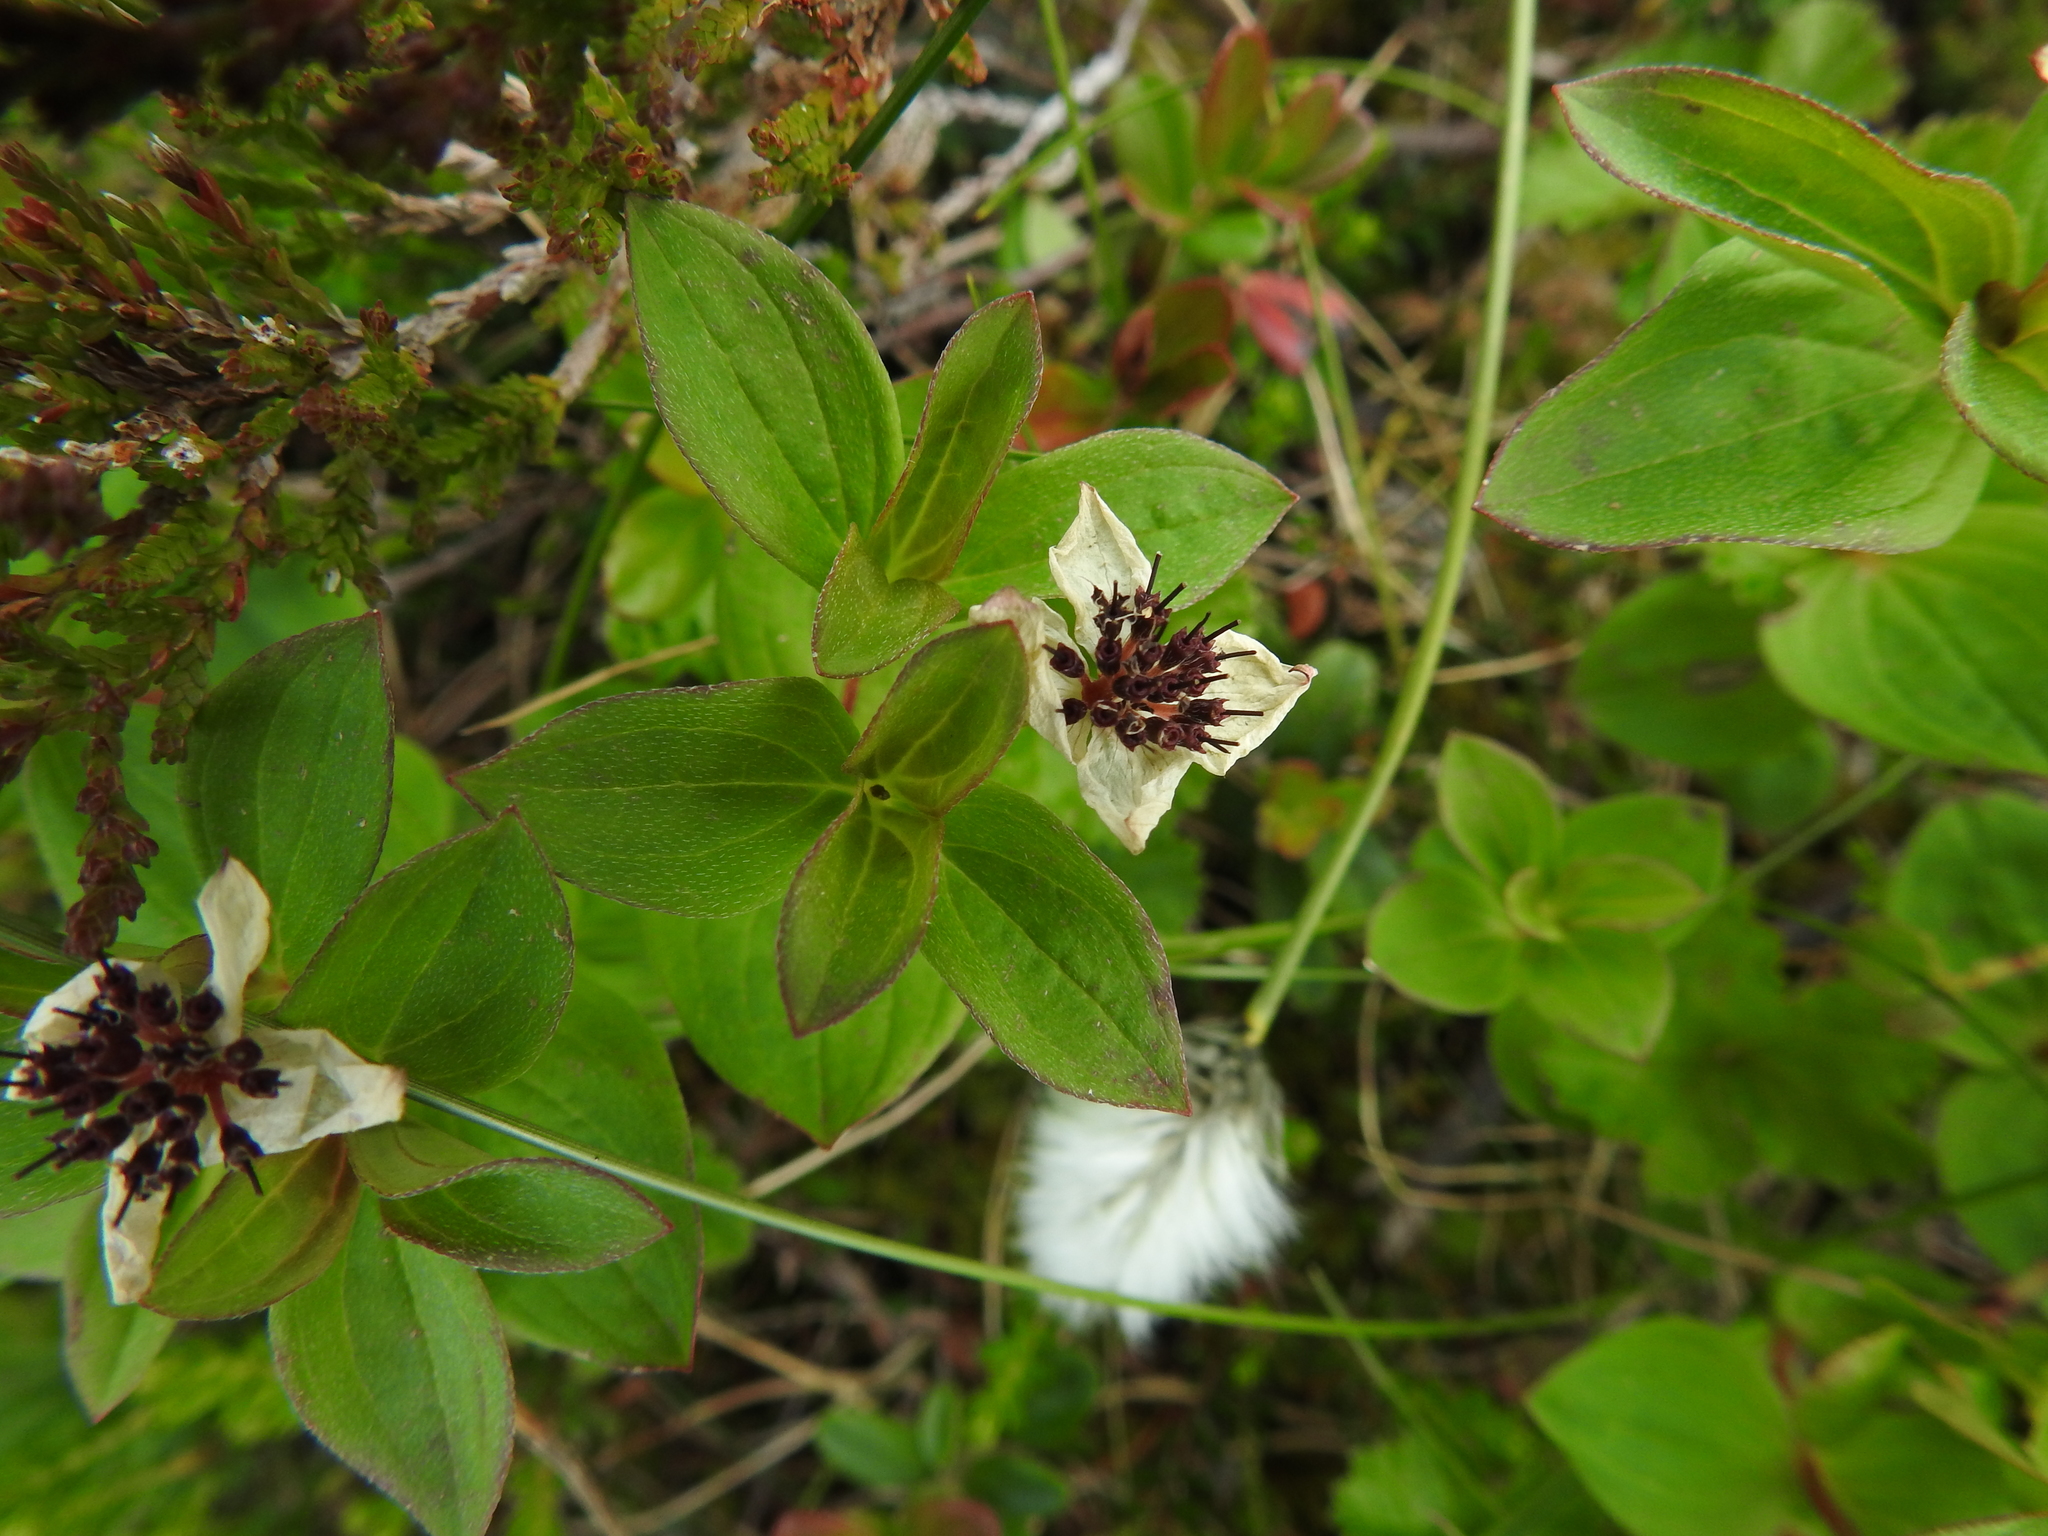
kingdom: Plantae
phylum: Tracheophyta
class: Magnoliopsida
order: Cornales
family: Cornaceae
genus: Cornus
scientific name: Cornus suecica
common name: Dwarf cornel
